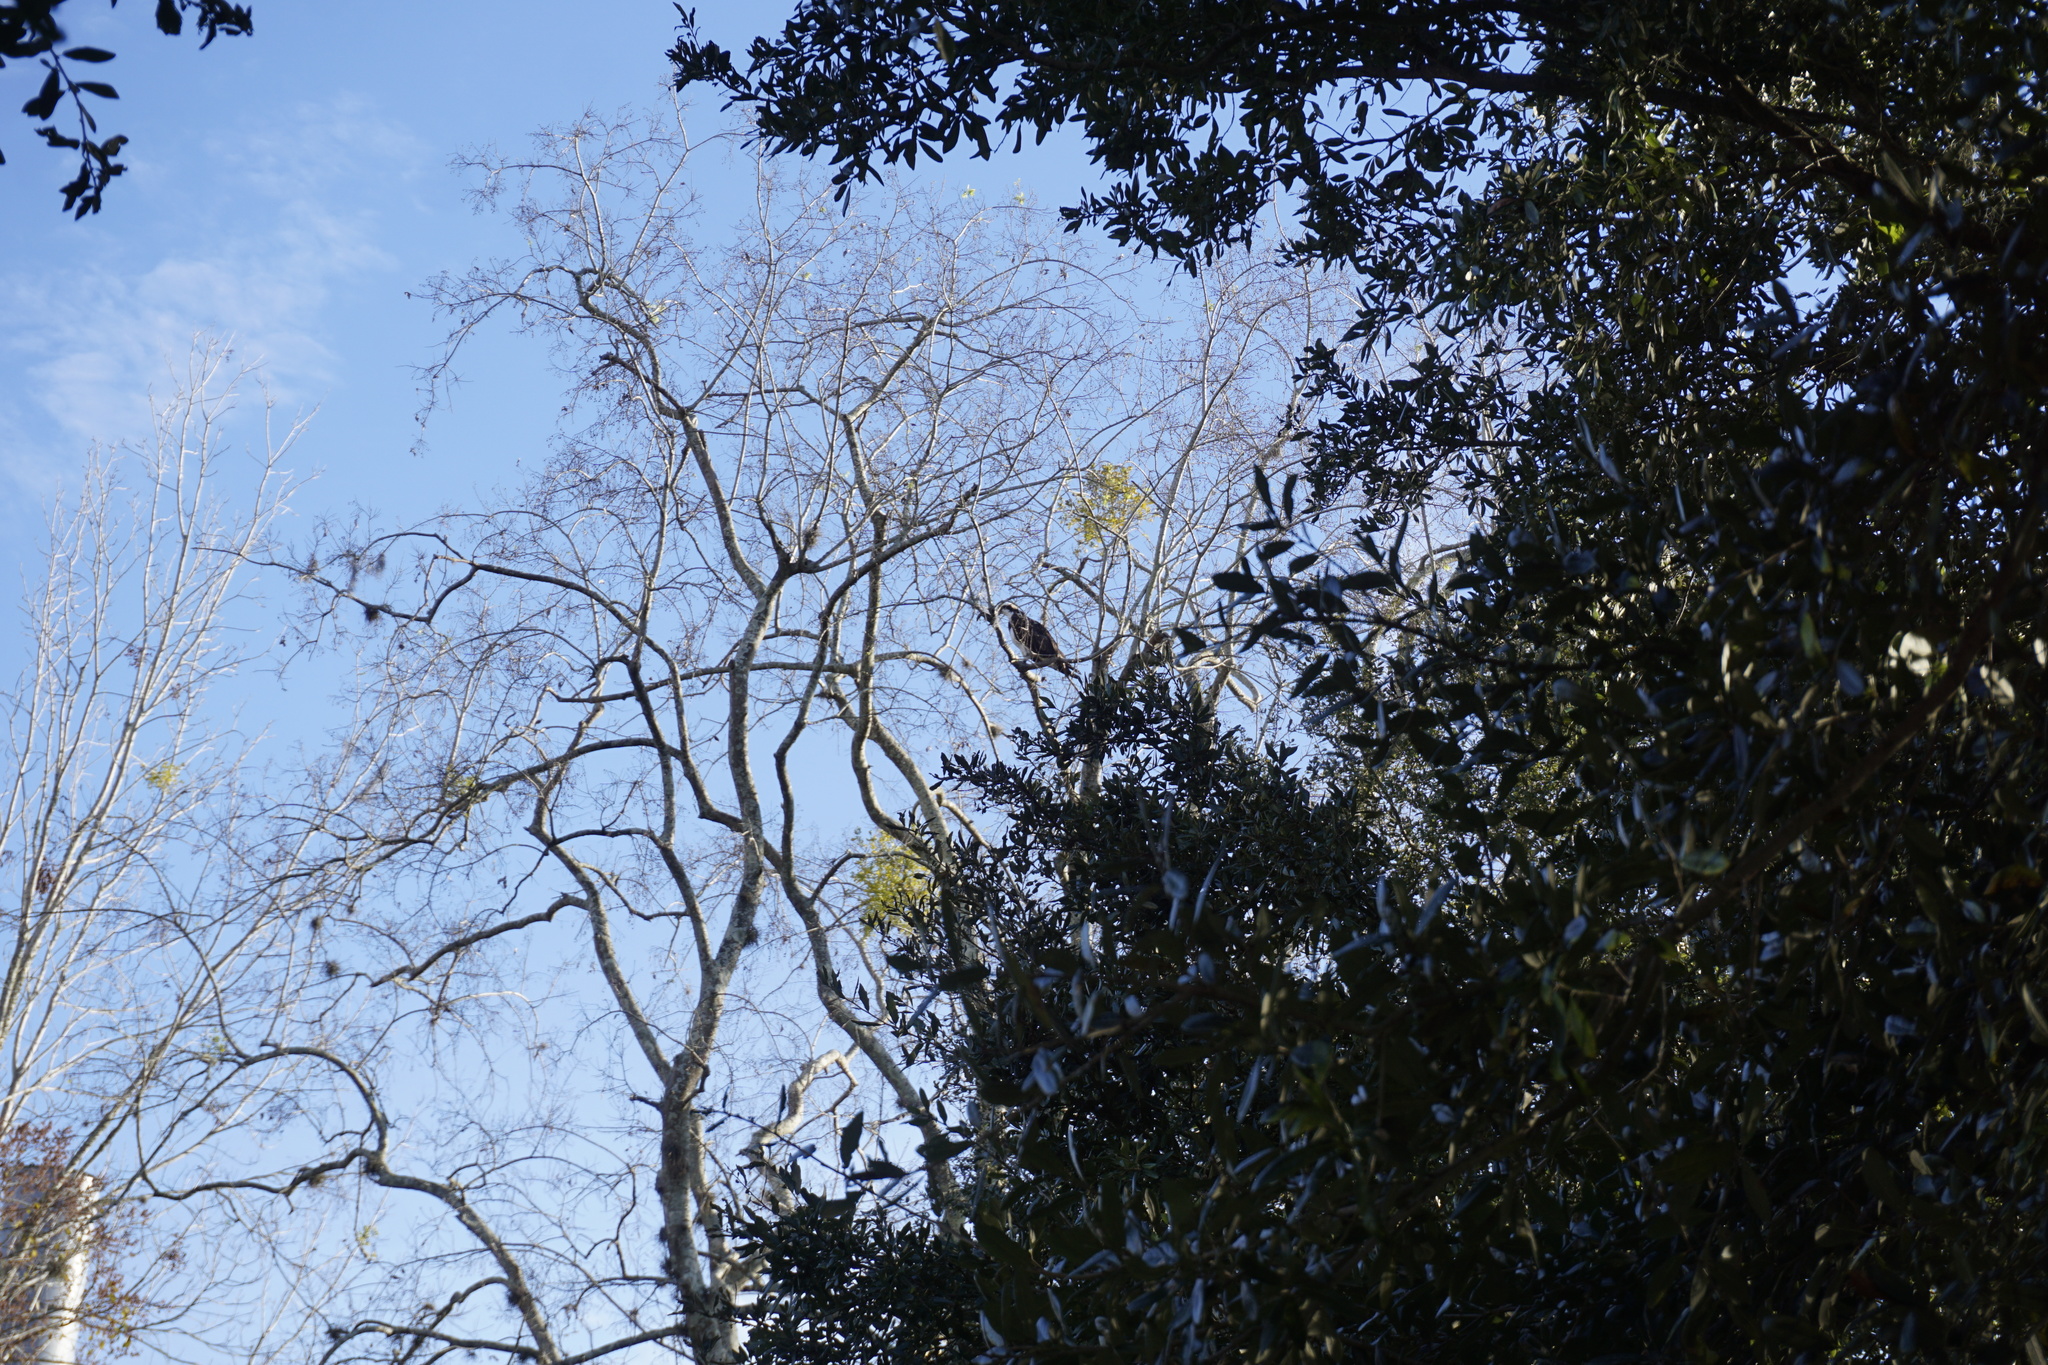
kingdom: Animalia
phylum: Chordata
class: Aves
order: Accipitriformes
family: Pandionidae
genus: Pandion
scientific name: Pandion haliaetus
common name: Osprey
